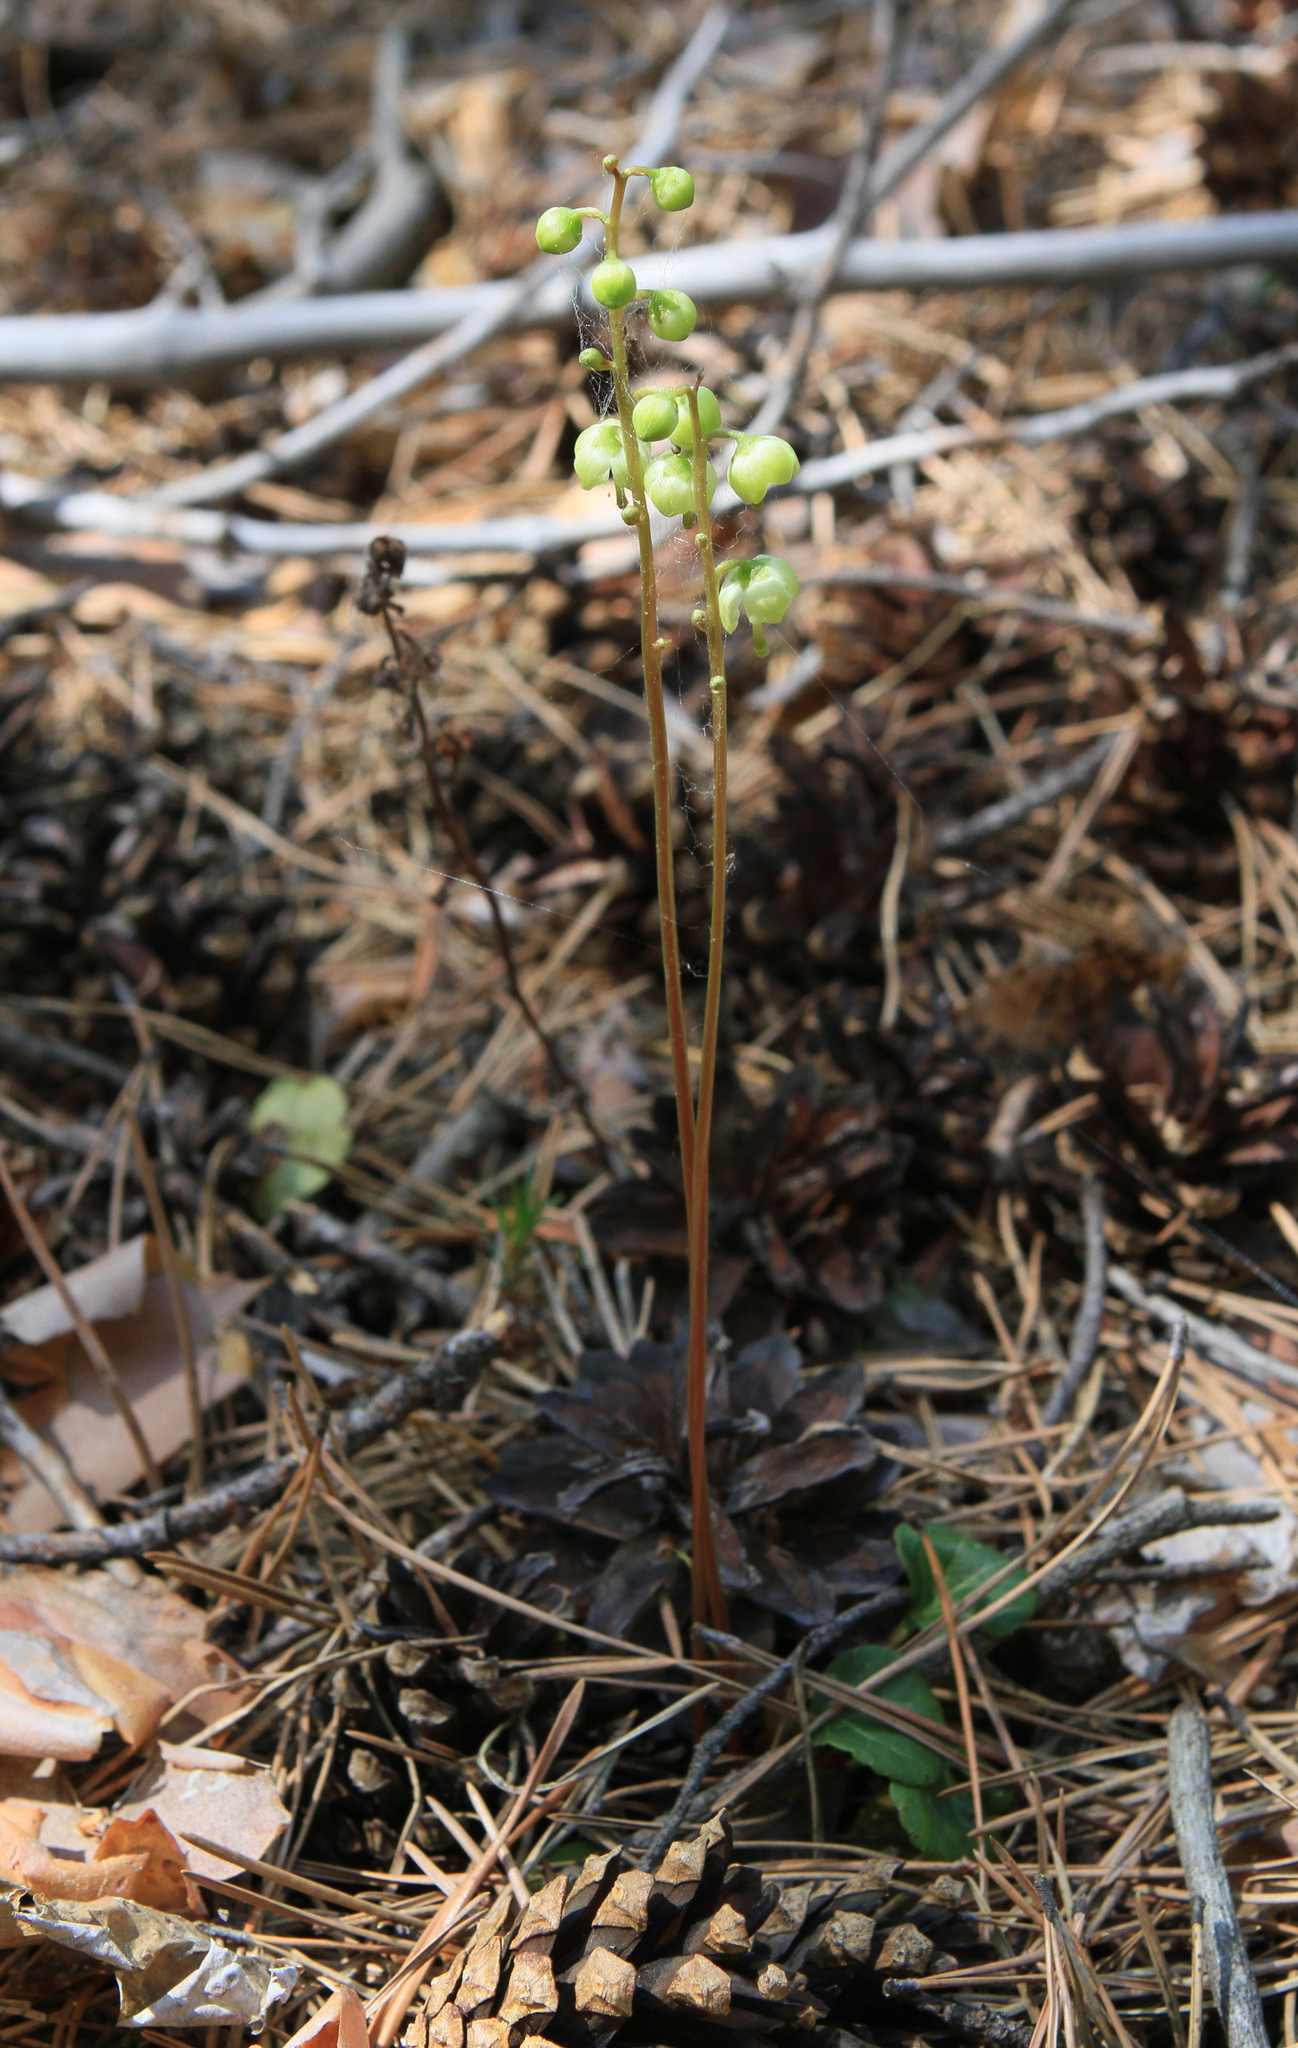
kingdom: Plantae
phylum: Tracheophyta
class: Magnoliopsida
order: Ericales
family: Ericaceae
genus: Pyrola
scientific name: Pyrola chlorantha
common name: Green wintergreen
